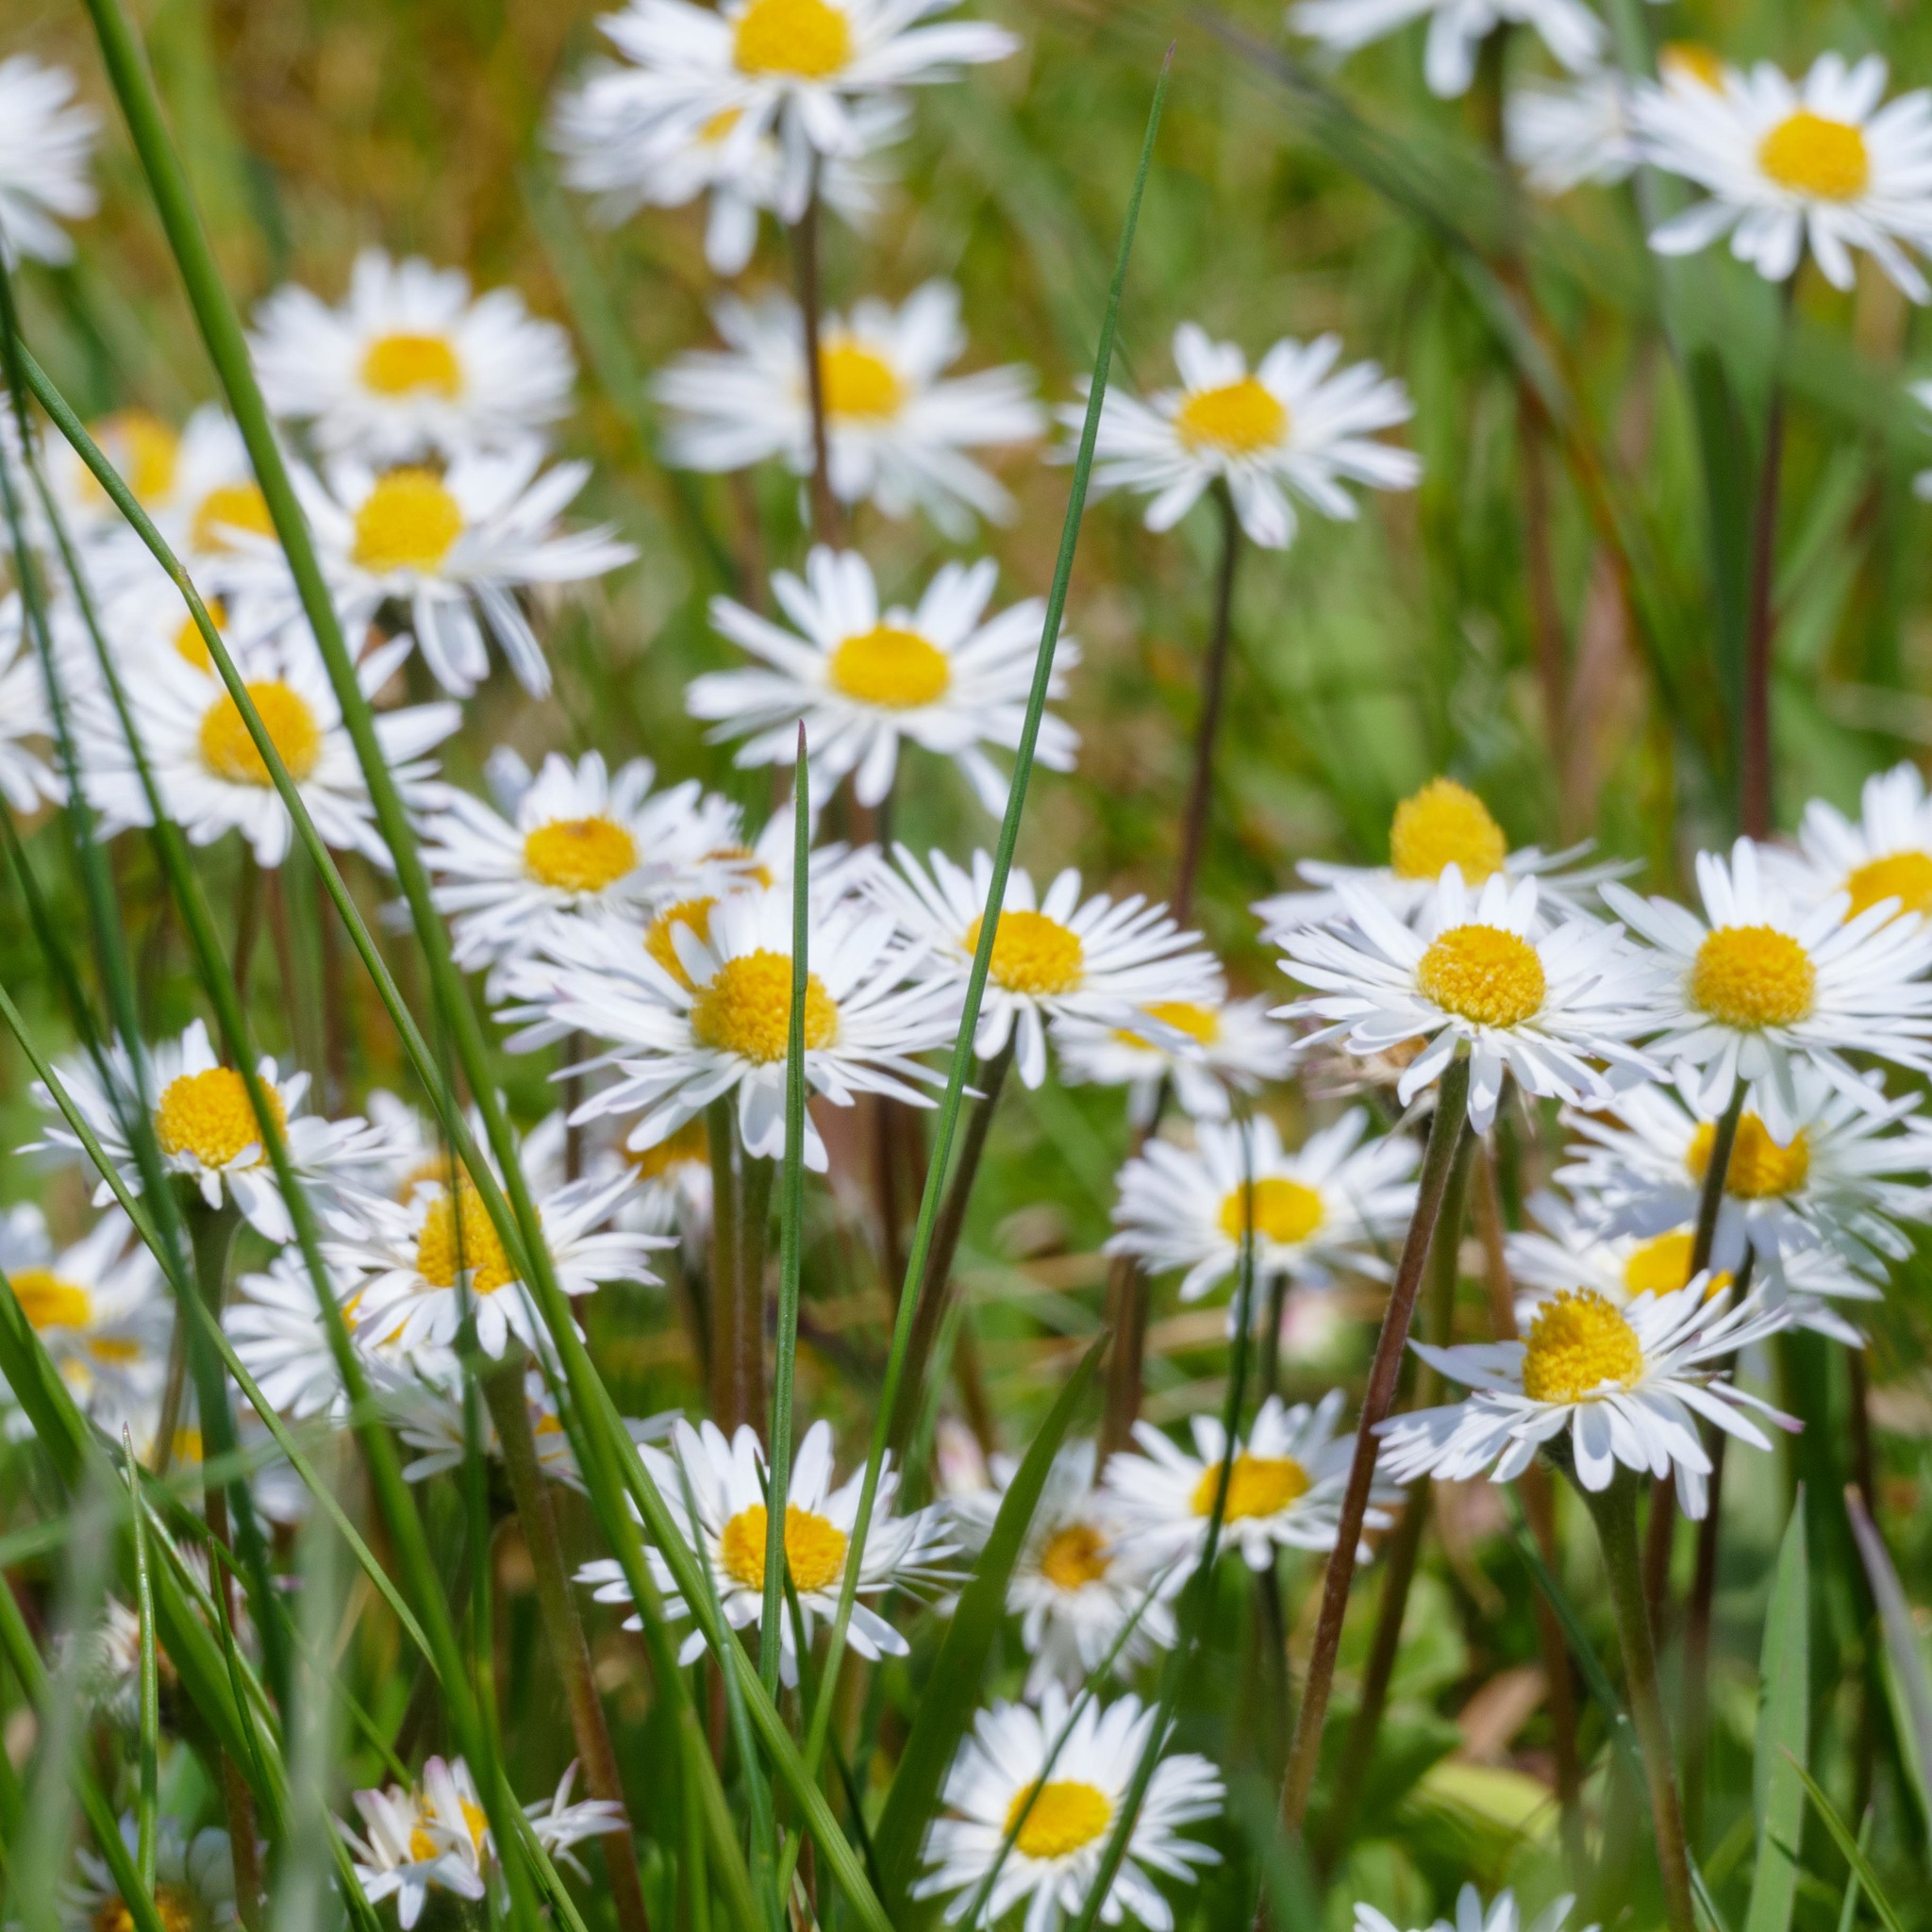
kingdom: Plantae
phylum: Tracheophyta
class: Magnoliopsida
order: Asterales
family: Asteraceae
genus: Bellis
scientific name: Bellis perennis
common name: Lawndaisy
